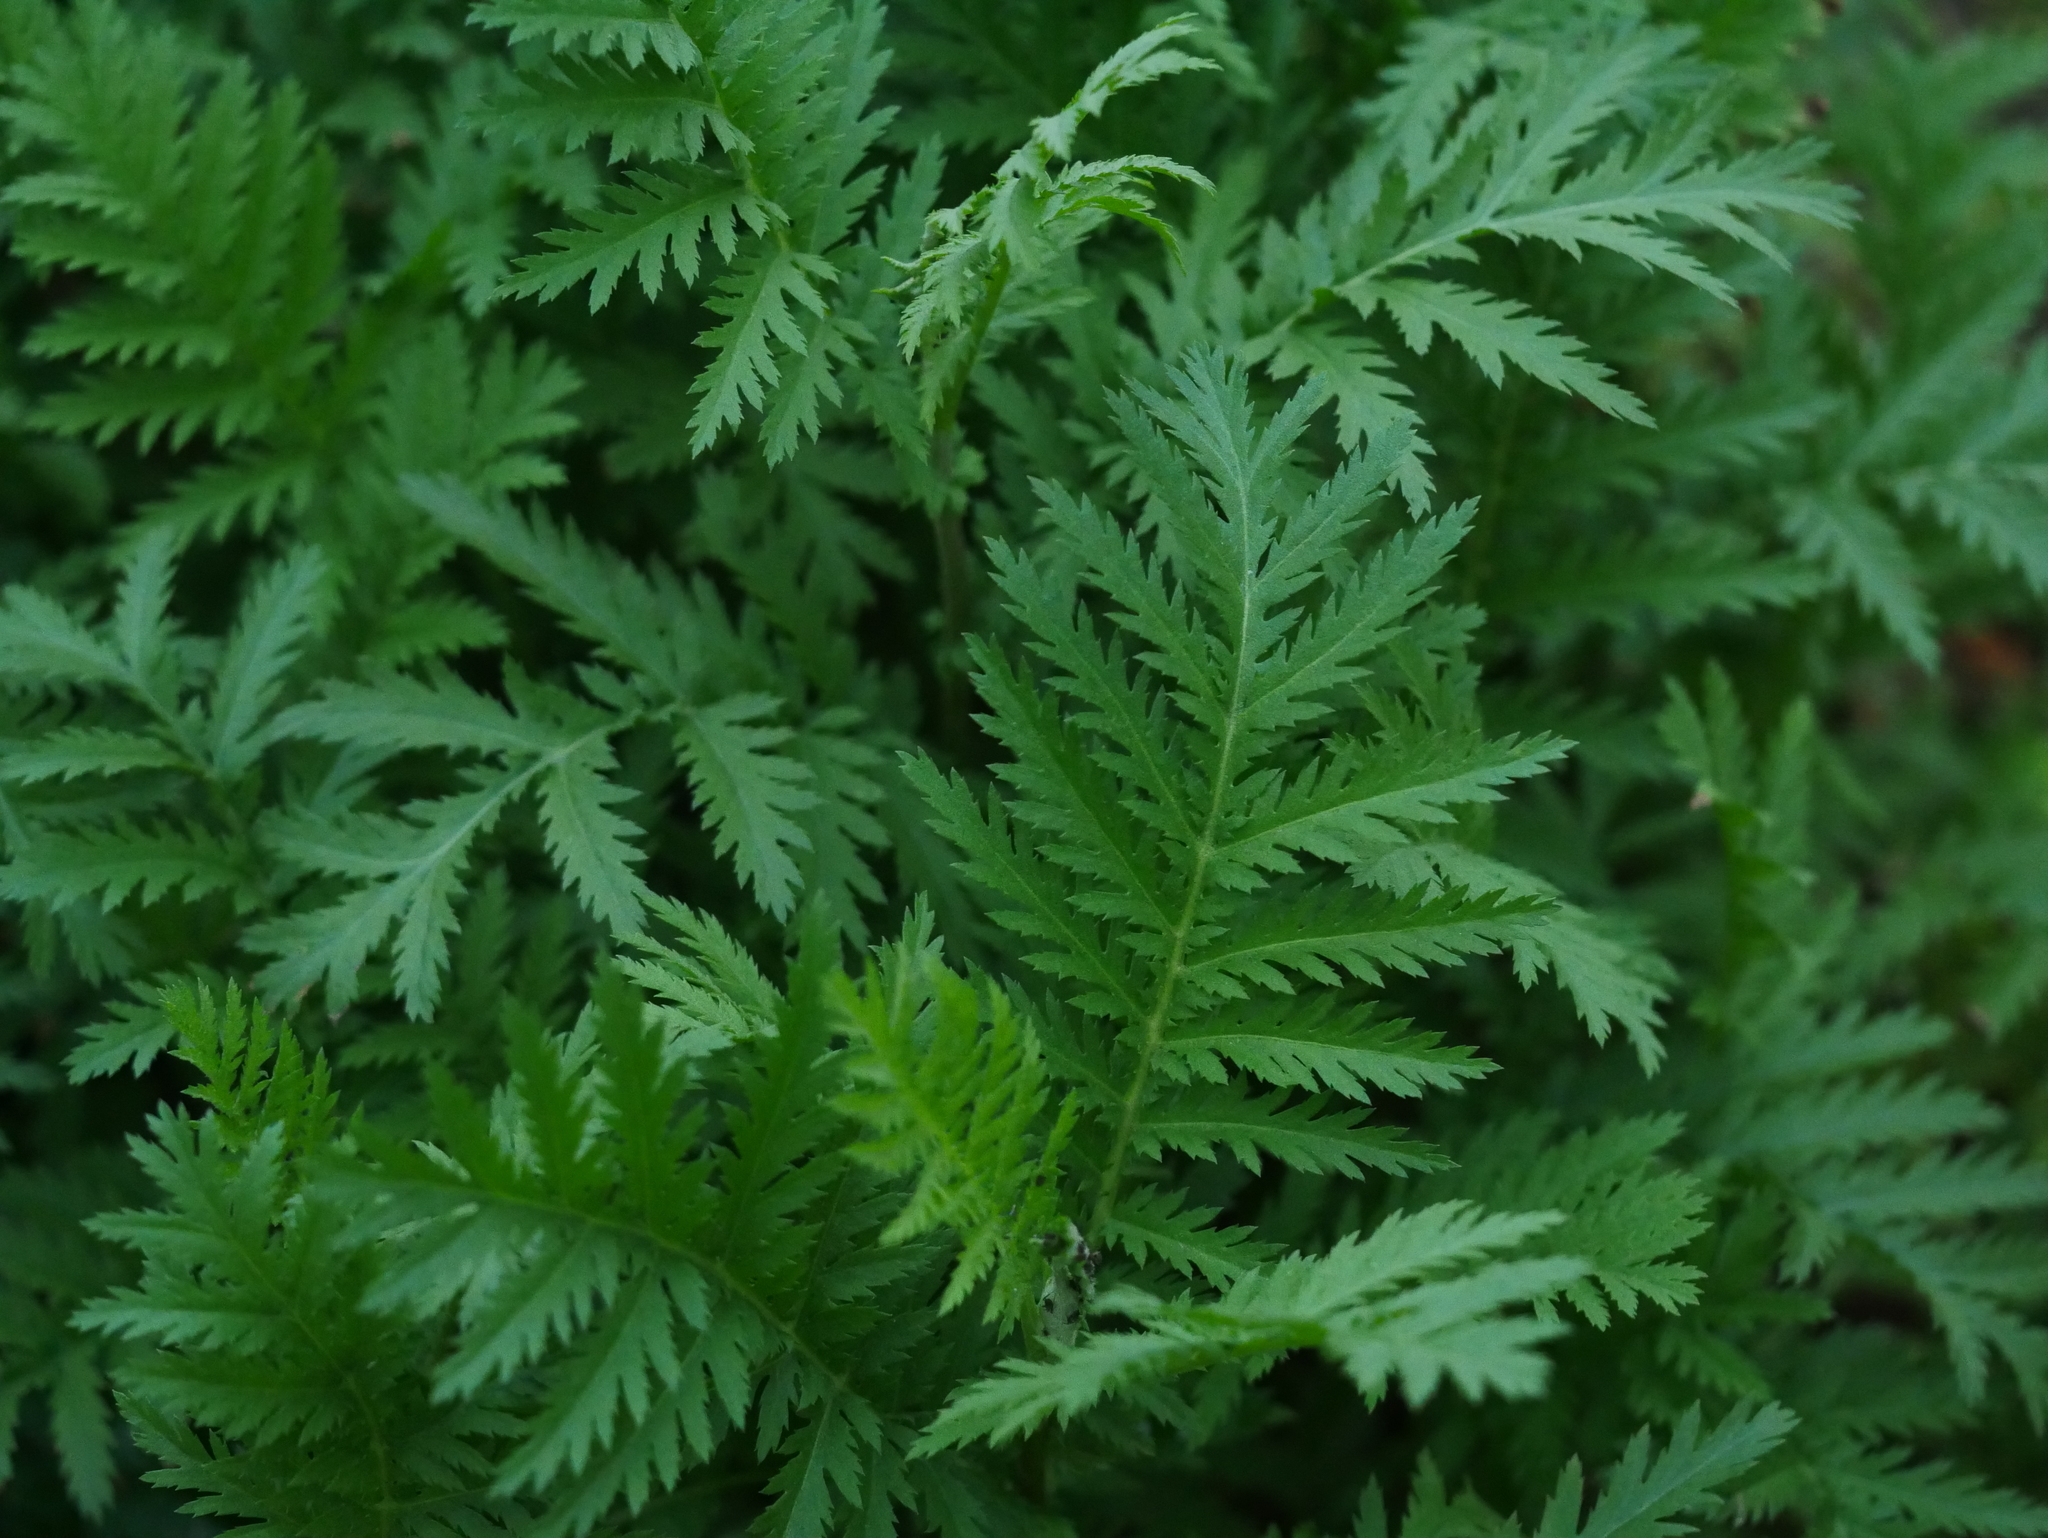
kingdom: Plantae
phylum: Tracheophyta
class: Magnoliopsida
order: Asterales
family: Asteraceae
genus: Tanacetum
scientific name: Tanacetum vulgare
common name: Common tansy
